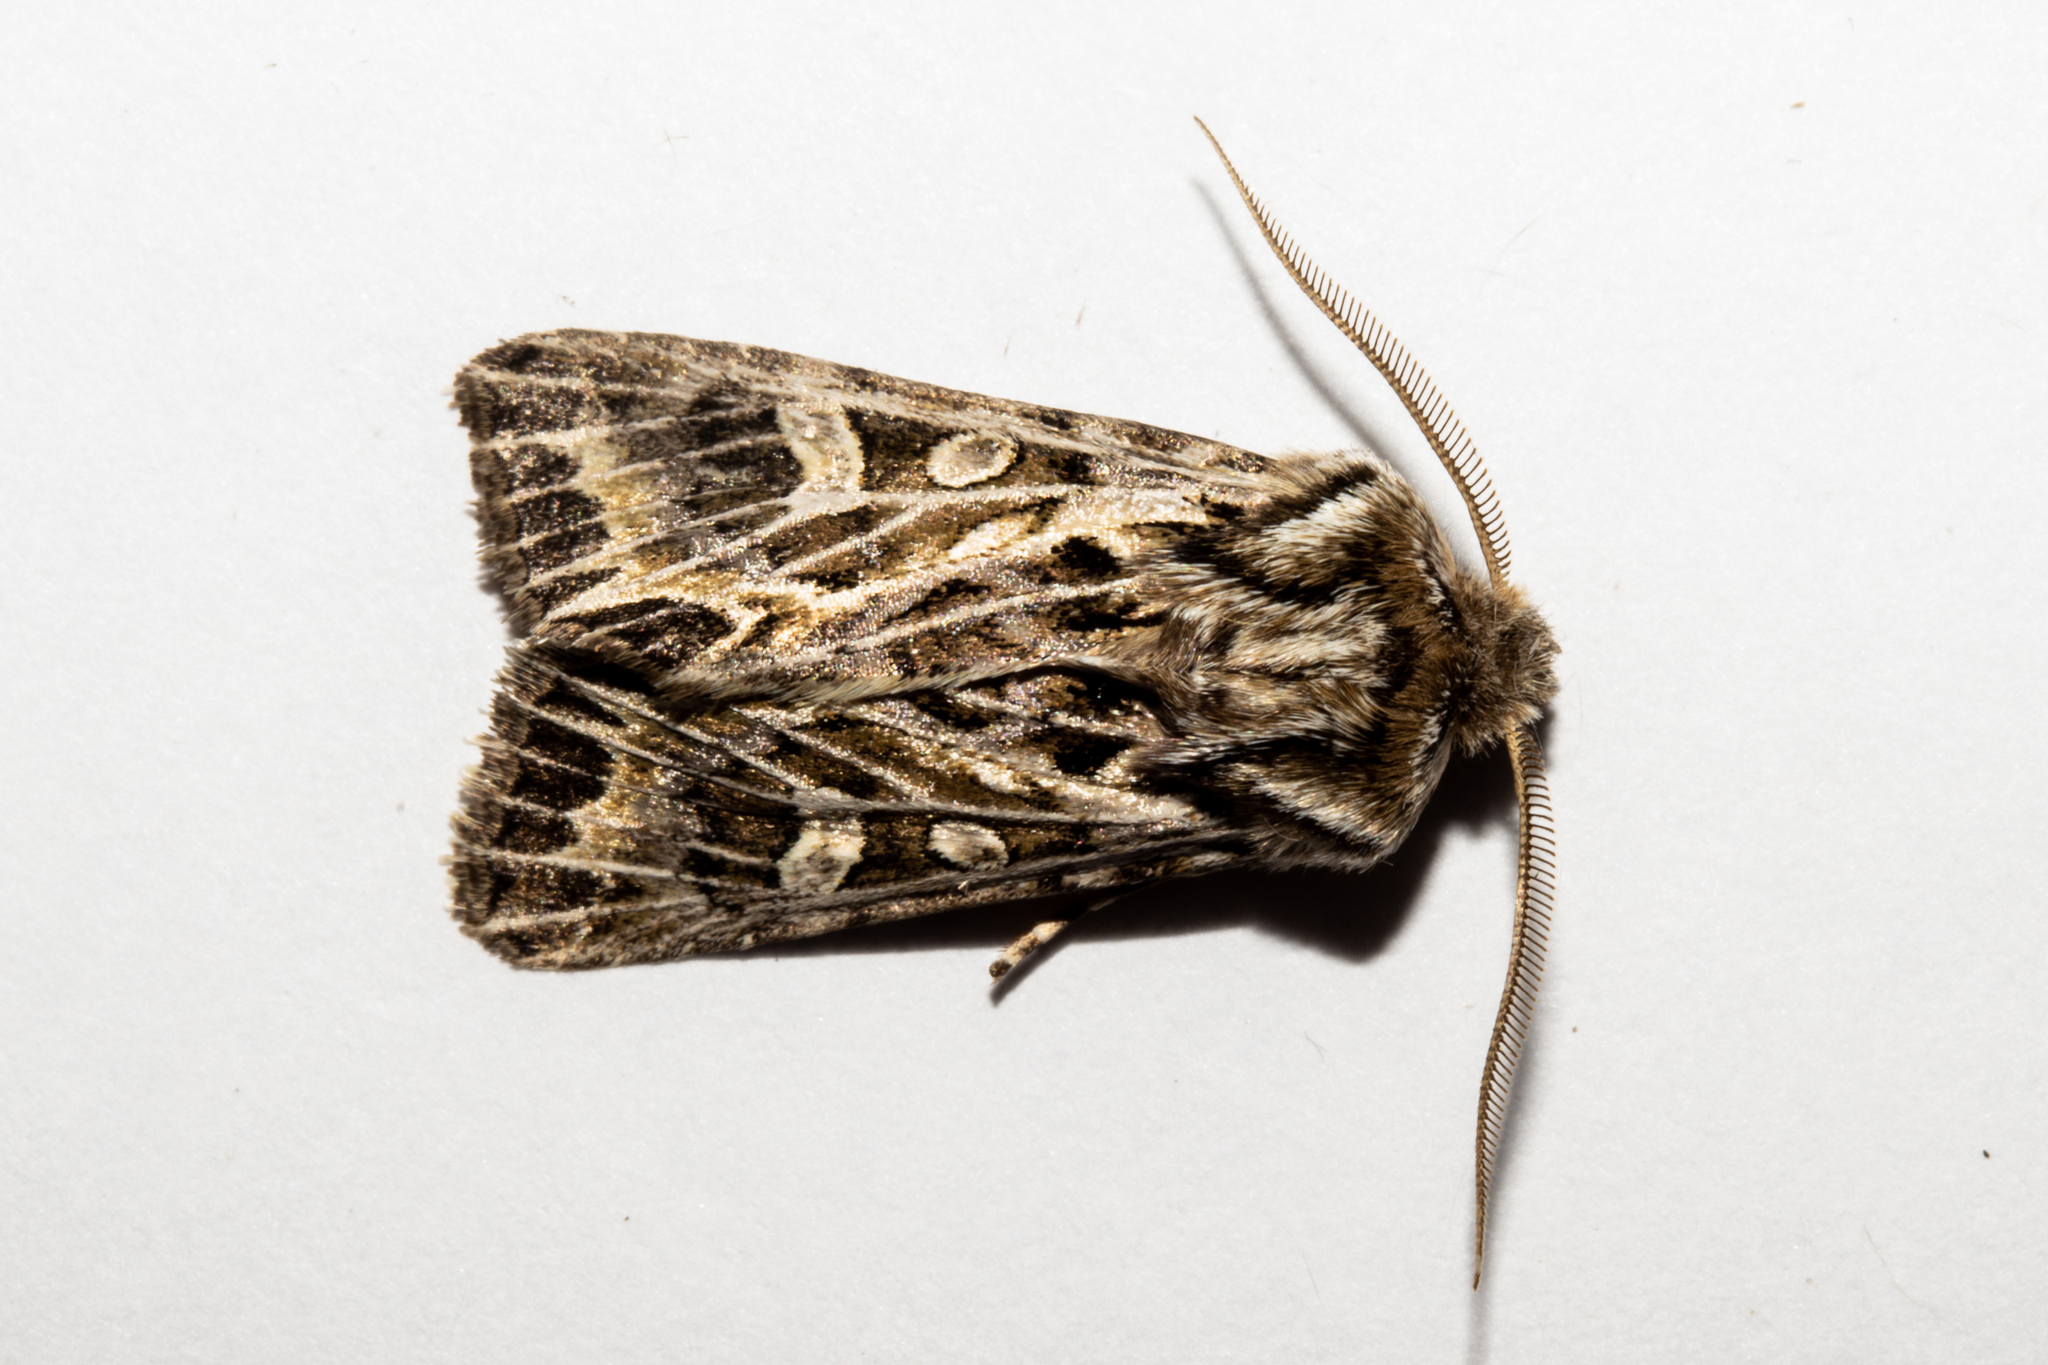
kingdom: Animalia
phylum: Arthropoda
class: Insecta
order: Lepidoptera
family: Noctuidae
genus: Ichneutica
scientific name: Ichneutica
